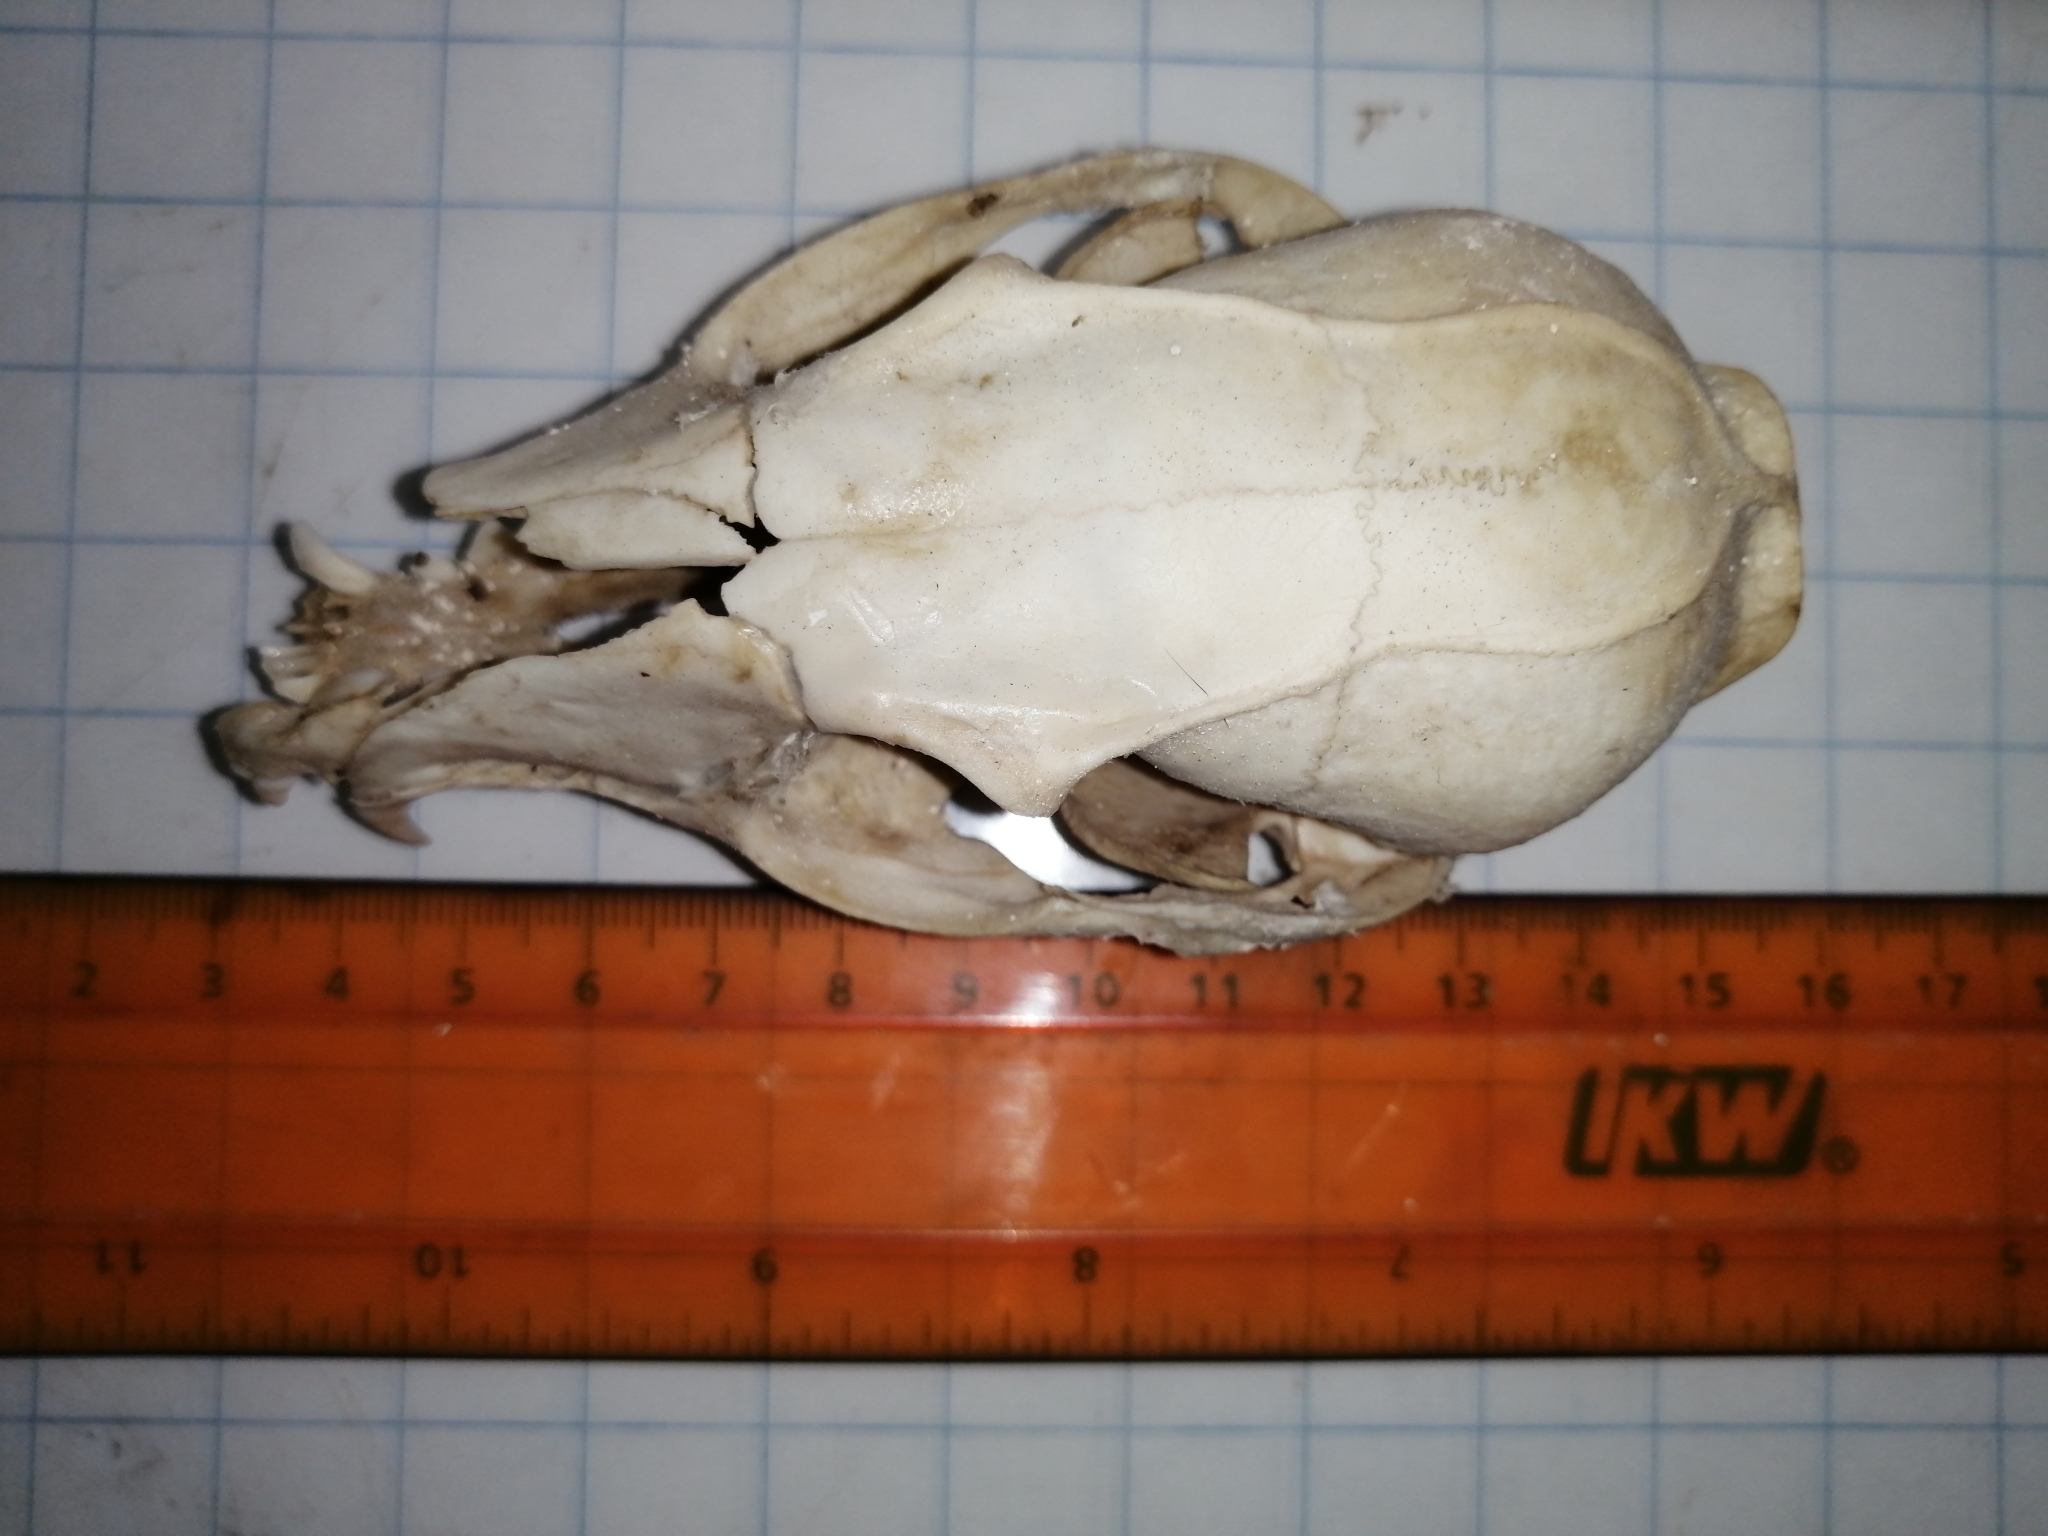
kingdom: Animalia
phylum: Chordata
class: Mammalia
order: Carnivora
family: Canidae
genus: Urocyon
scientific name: Urocyon cinereoargenteus
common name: Gray fox
